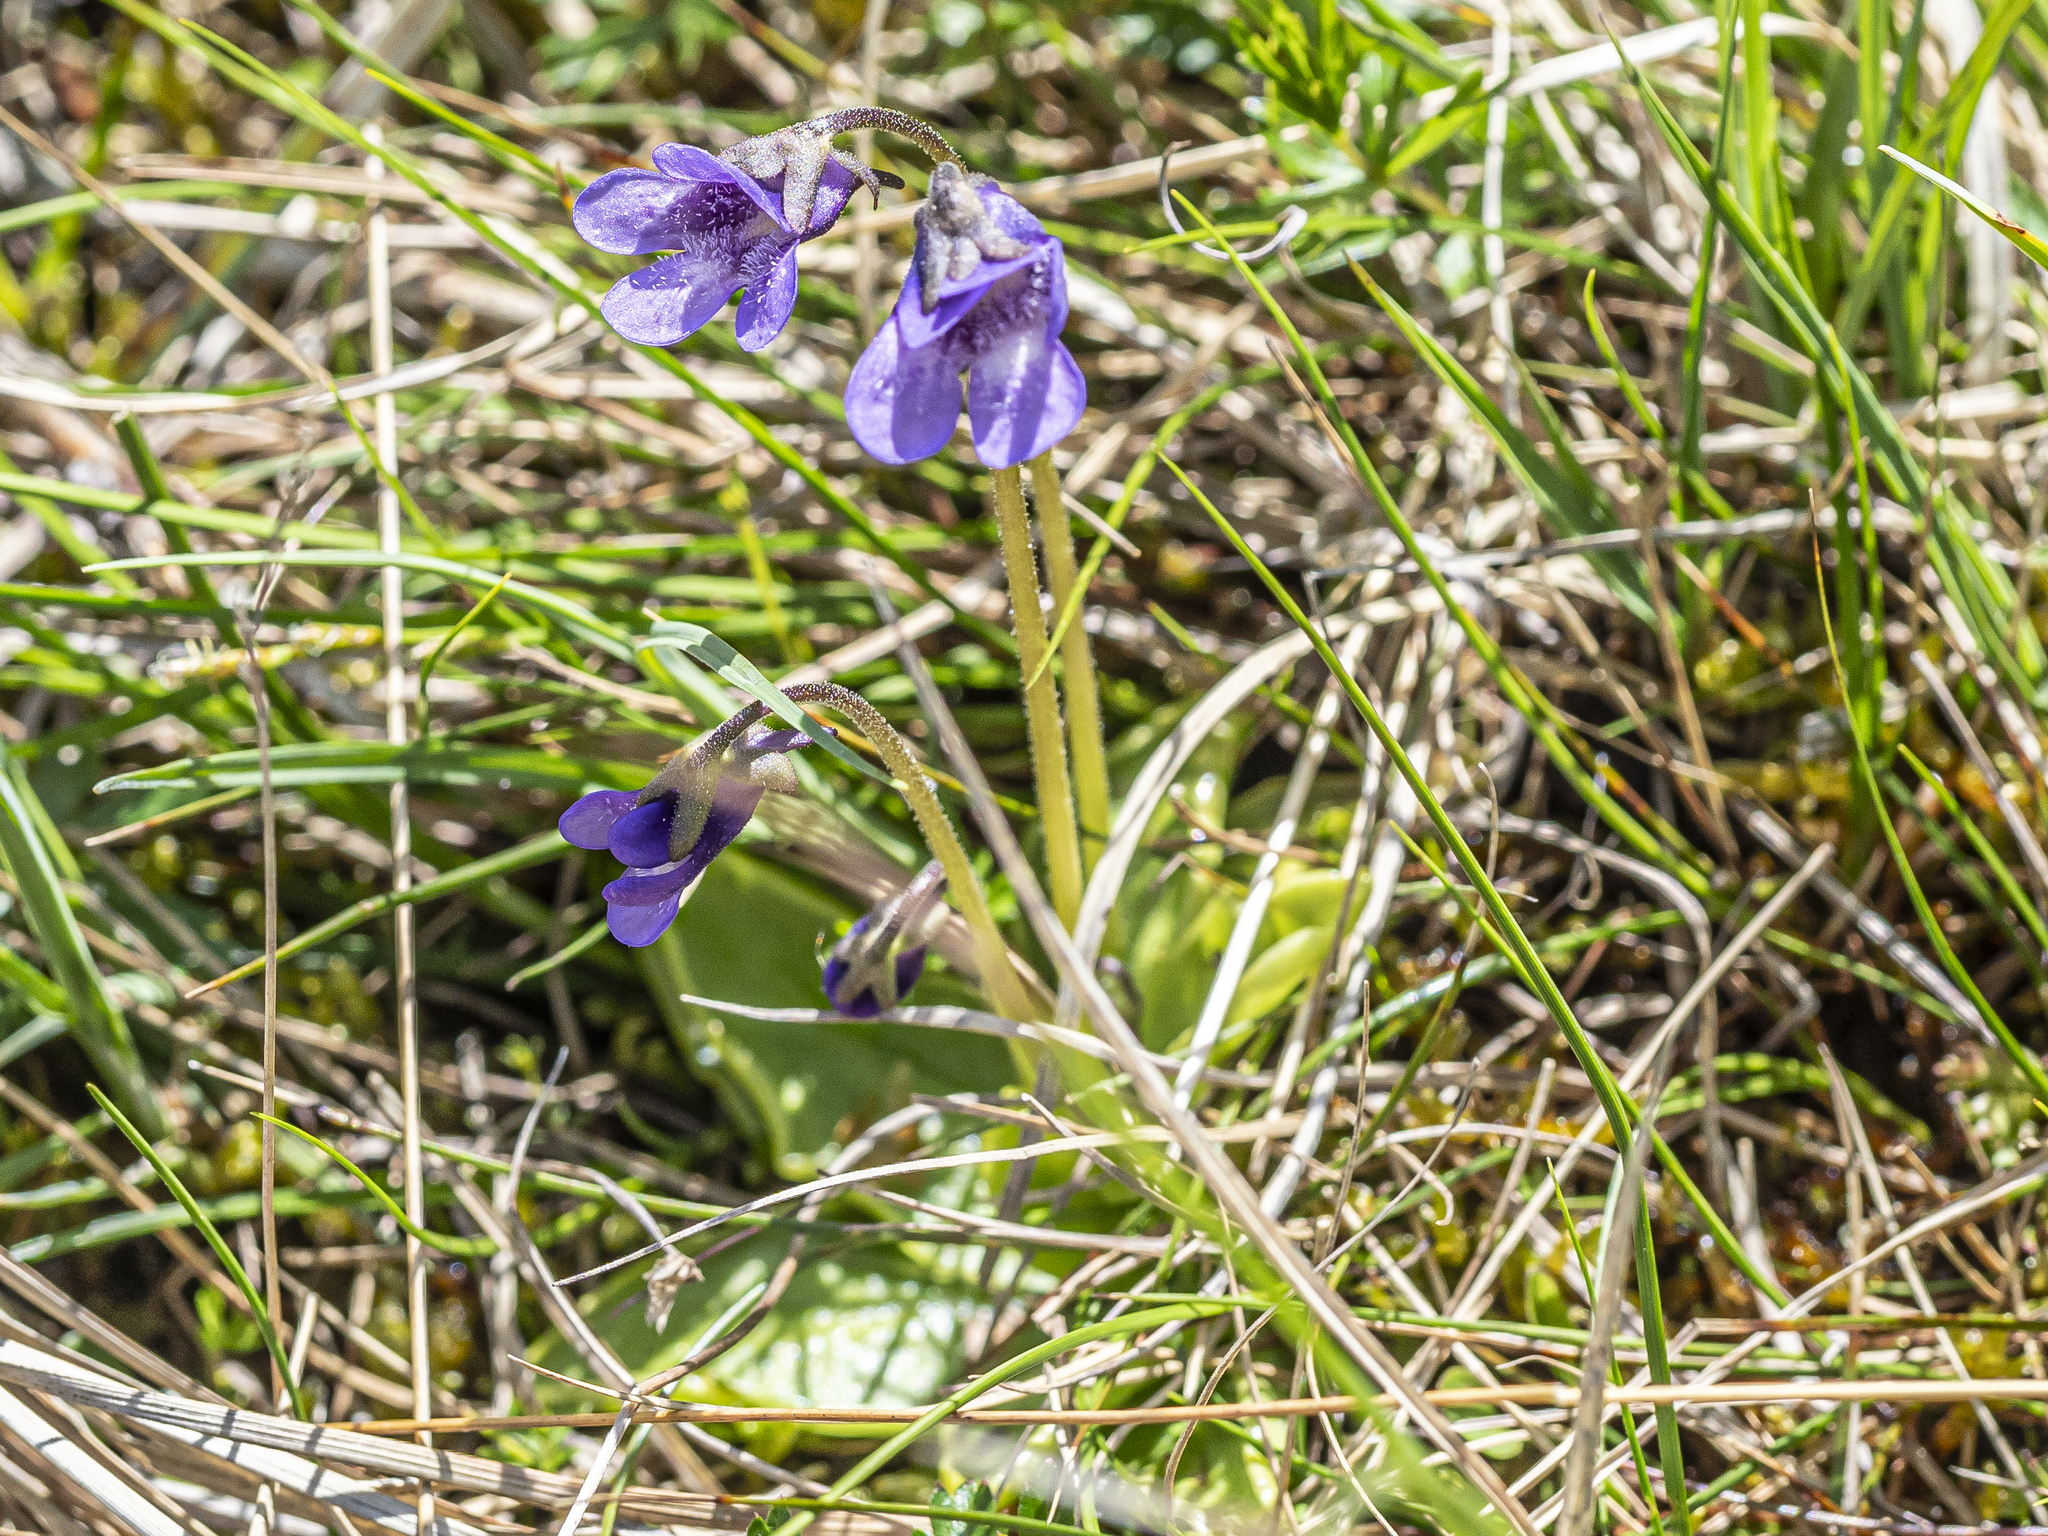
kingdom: Plantae
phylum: Tracheophyta
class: Magnoliopsida
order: Lamiales
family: Lentibulariaceae
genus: Pinguicula
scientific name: Pinguicula vulgaris
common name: Common butterwort
